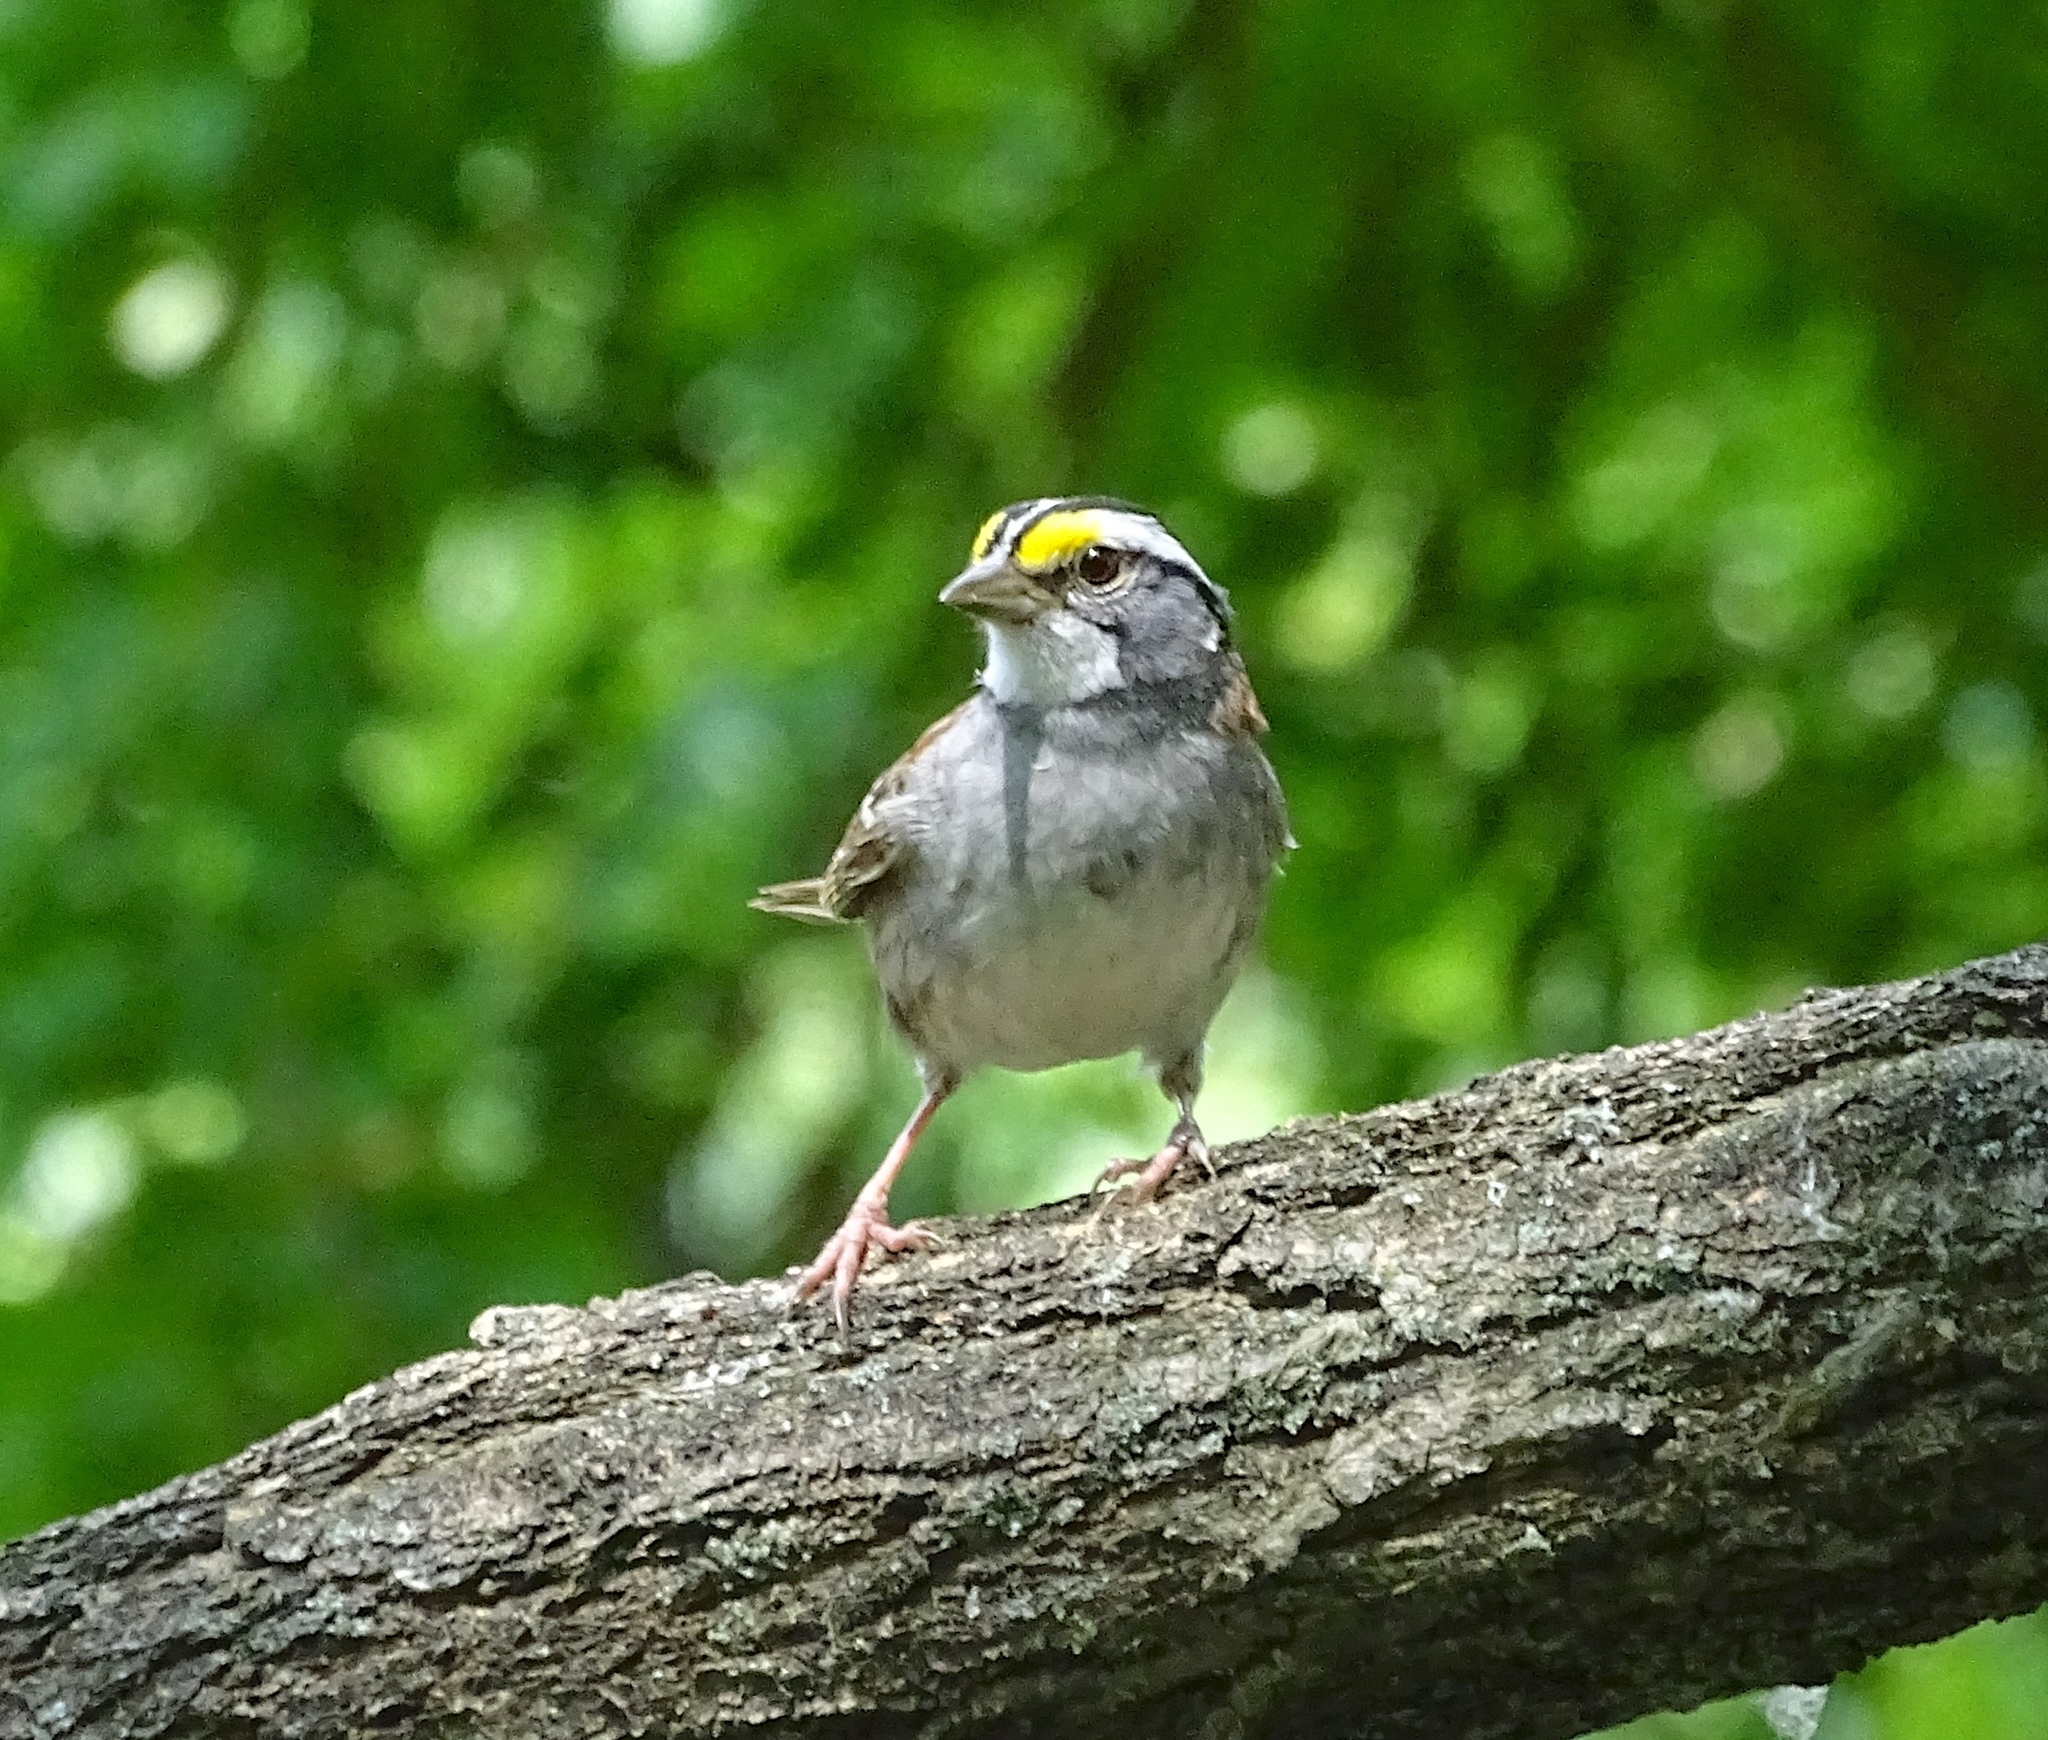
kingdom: Animalia
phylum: Chordata
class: Aves
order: Passeriformes
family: Passerellidae
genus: Zonotrichia
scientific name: Zonotrichia albicollis
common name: White-throated sparrow
